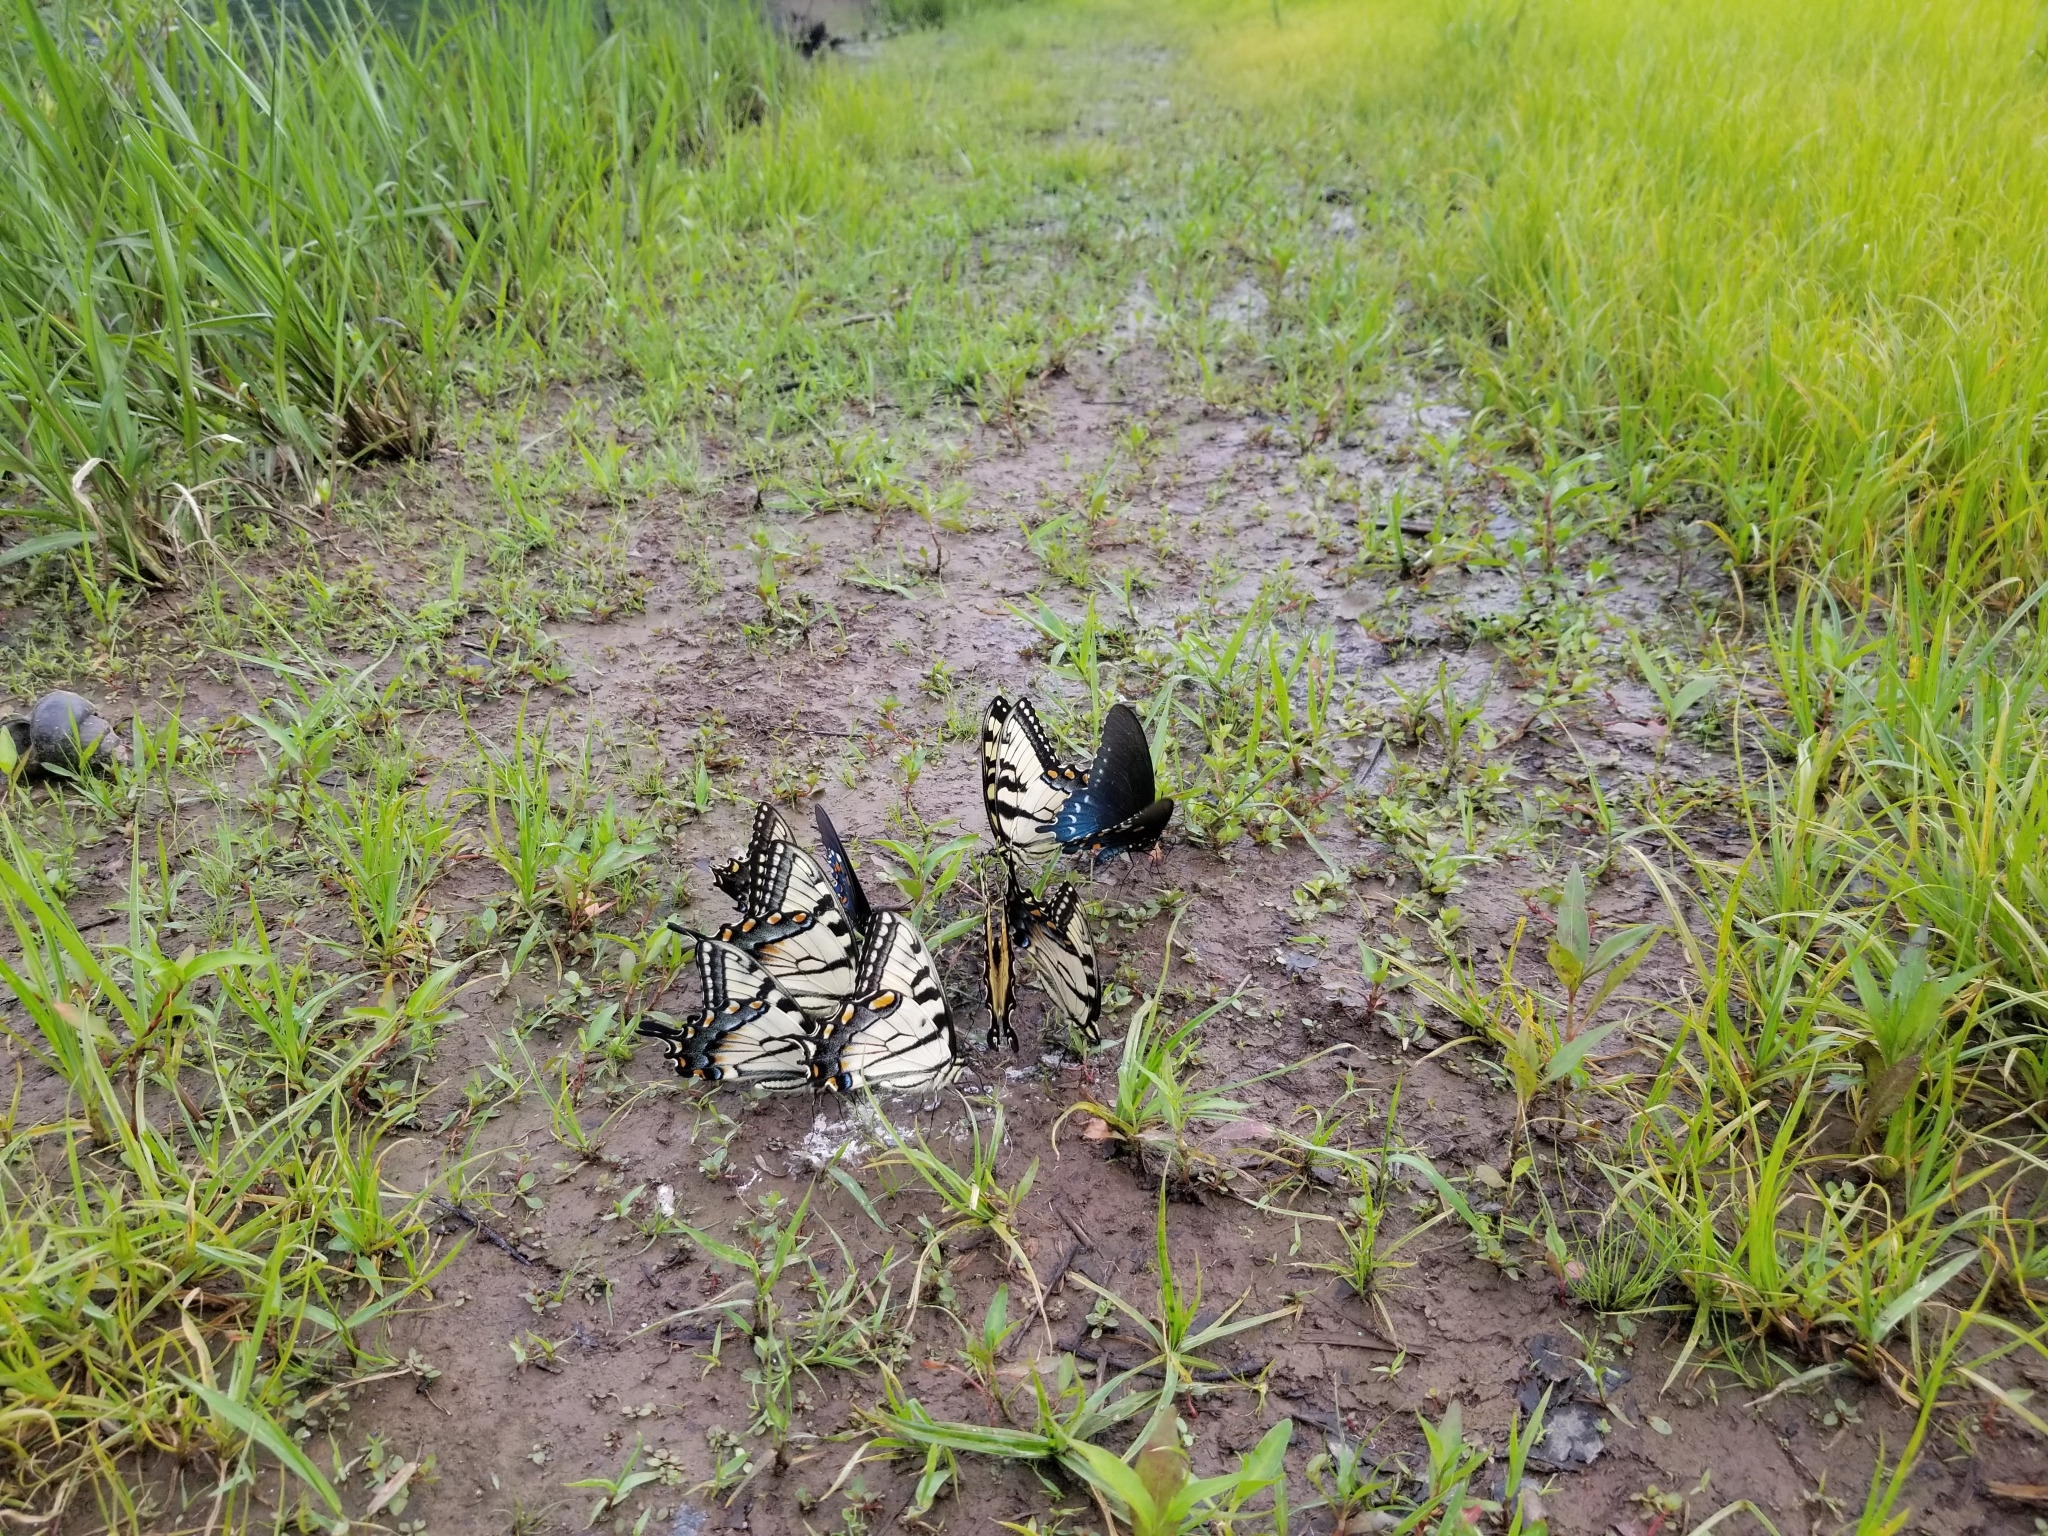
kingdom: Animalia
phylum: Arthropoda
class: Insecta
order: Lepidoptera
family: Papilionidae
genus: Papilio
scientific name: Papilio glaucus
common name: Tiger swallowtail
